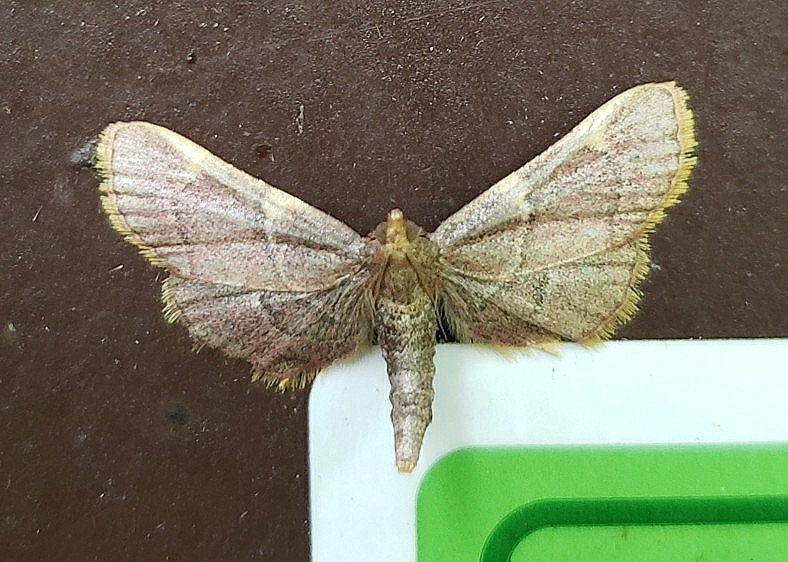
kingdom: Animalia
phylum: Arthropoda
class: Insecta
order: Lepidoptera
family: Pyralidae
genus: Hypsopygia
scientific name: Hypsopygia olinalis
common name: Yellow-fringed dolichomia moth
